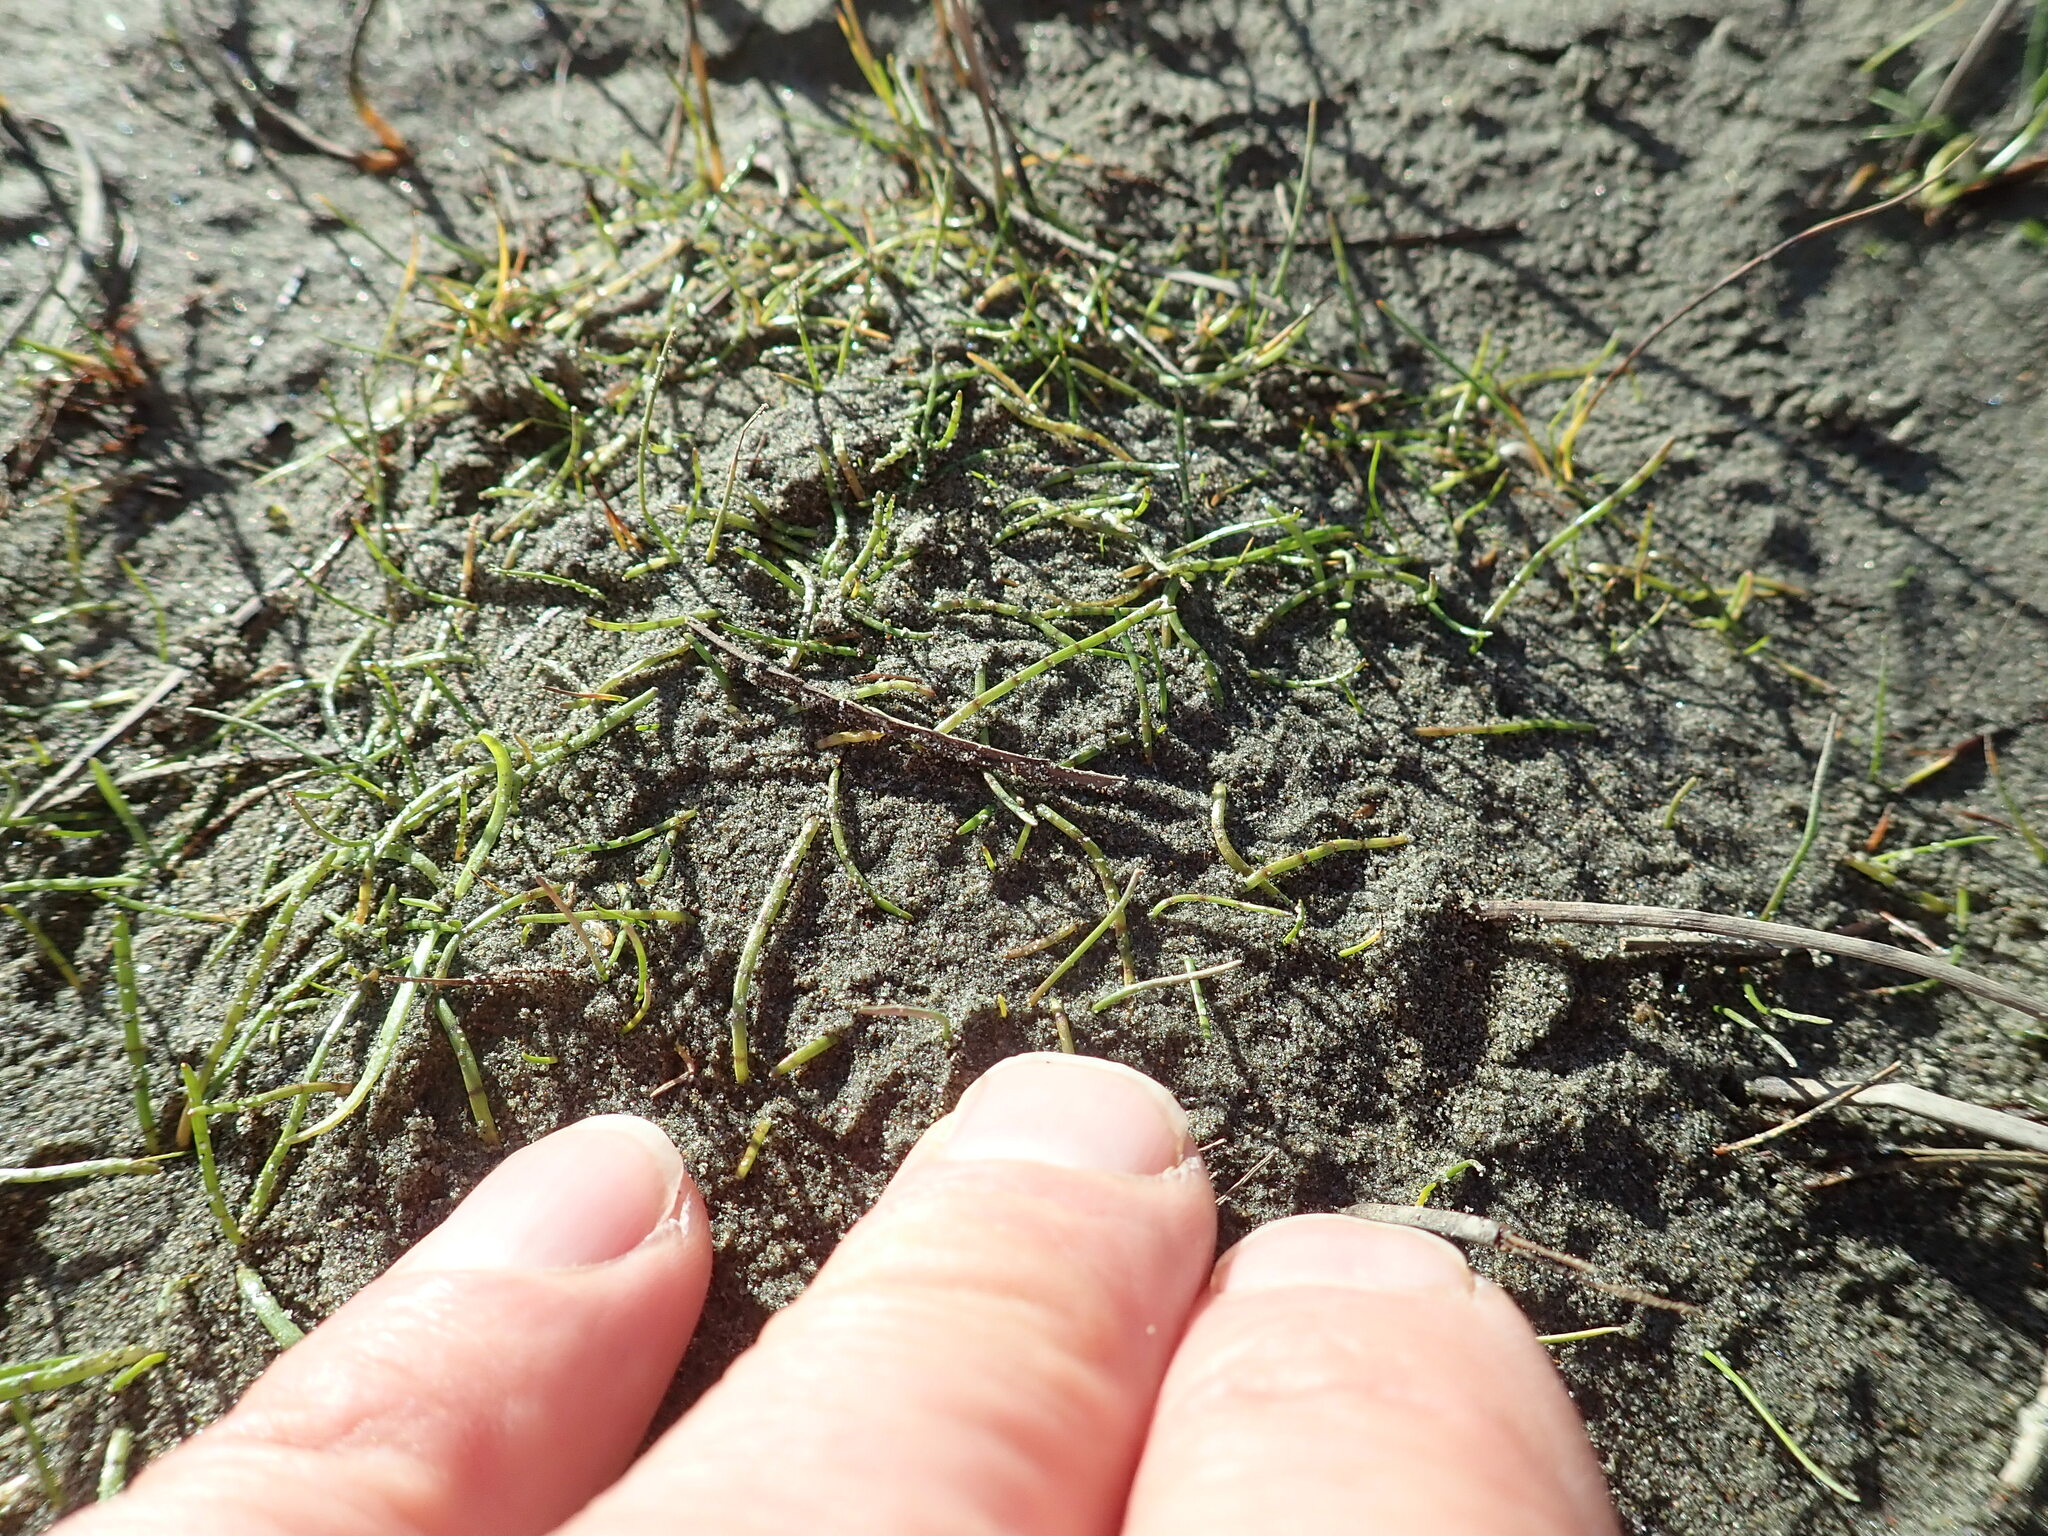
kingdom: Plantae
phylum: Tracheophyta
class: Magnoliopsida
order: Apiales
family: Apiaceae
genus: Lilaeopsis
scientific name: Lilaeopsis novae-zelandiae
